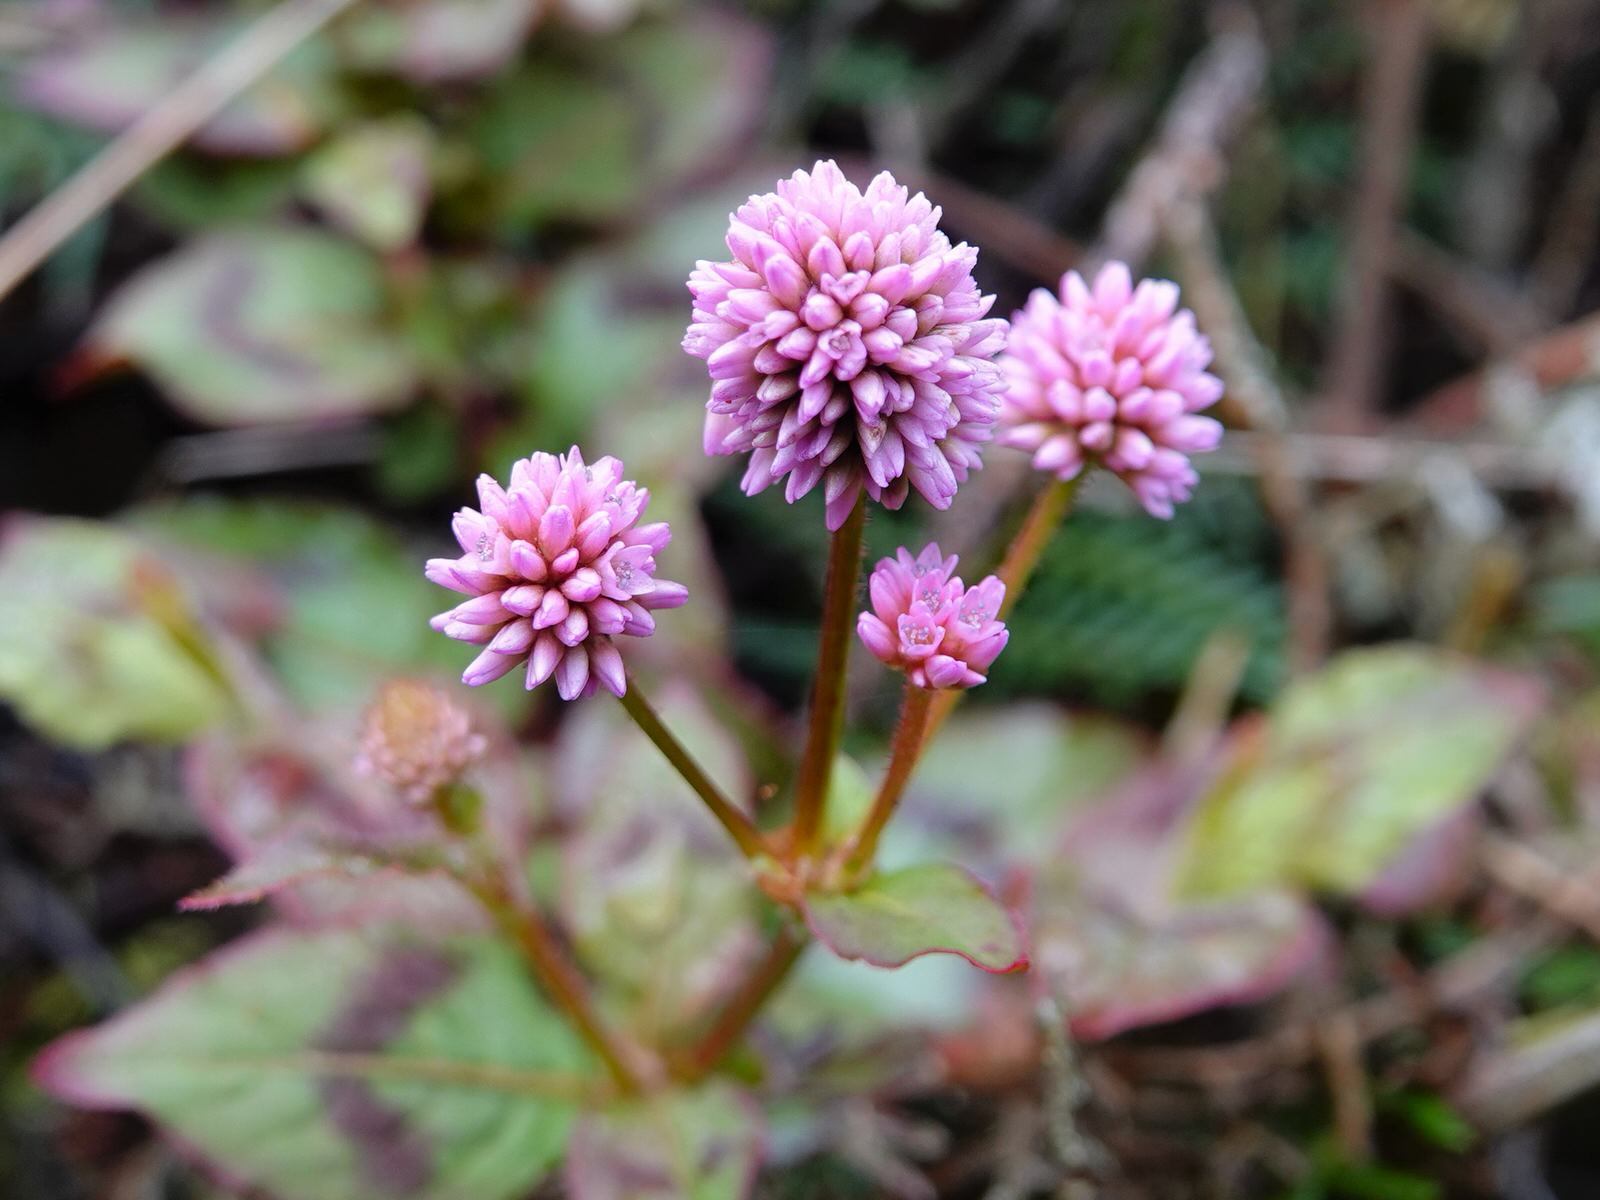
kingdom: Plantae
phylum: Tracheophyta
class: Magnoliopsida
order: Caryophyllales
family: Polygonaceae
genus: Persicaria
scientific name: Persicaria capitata
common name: Pinkhead smartweed
